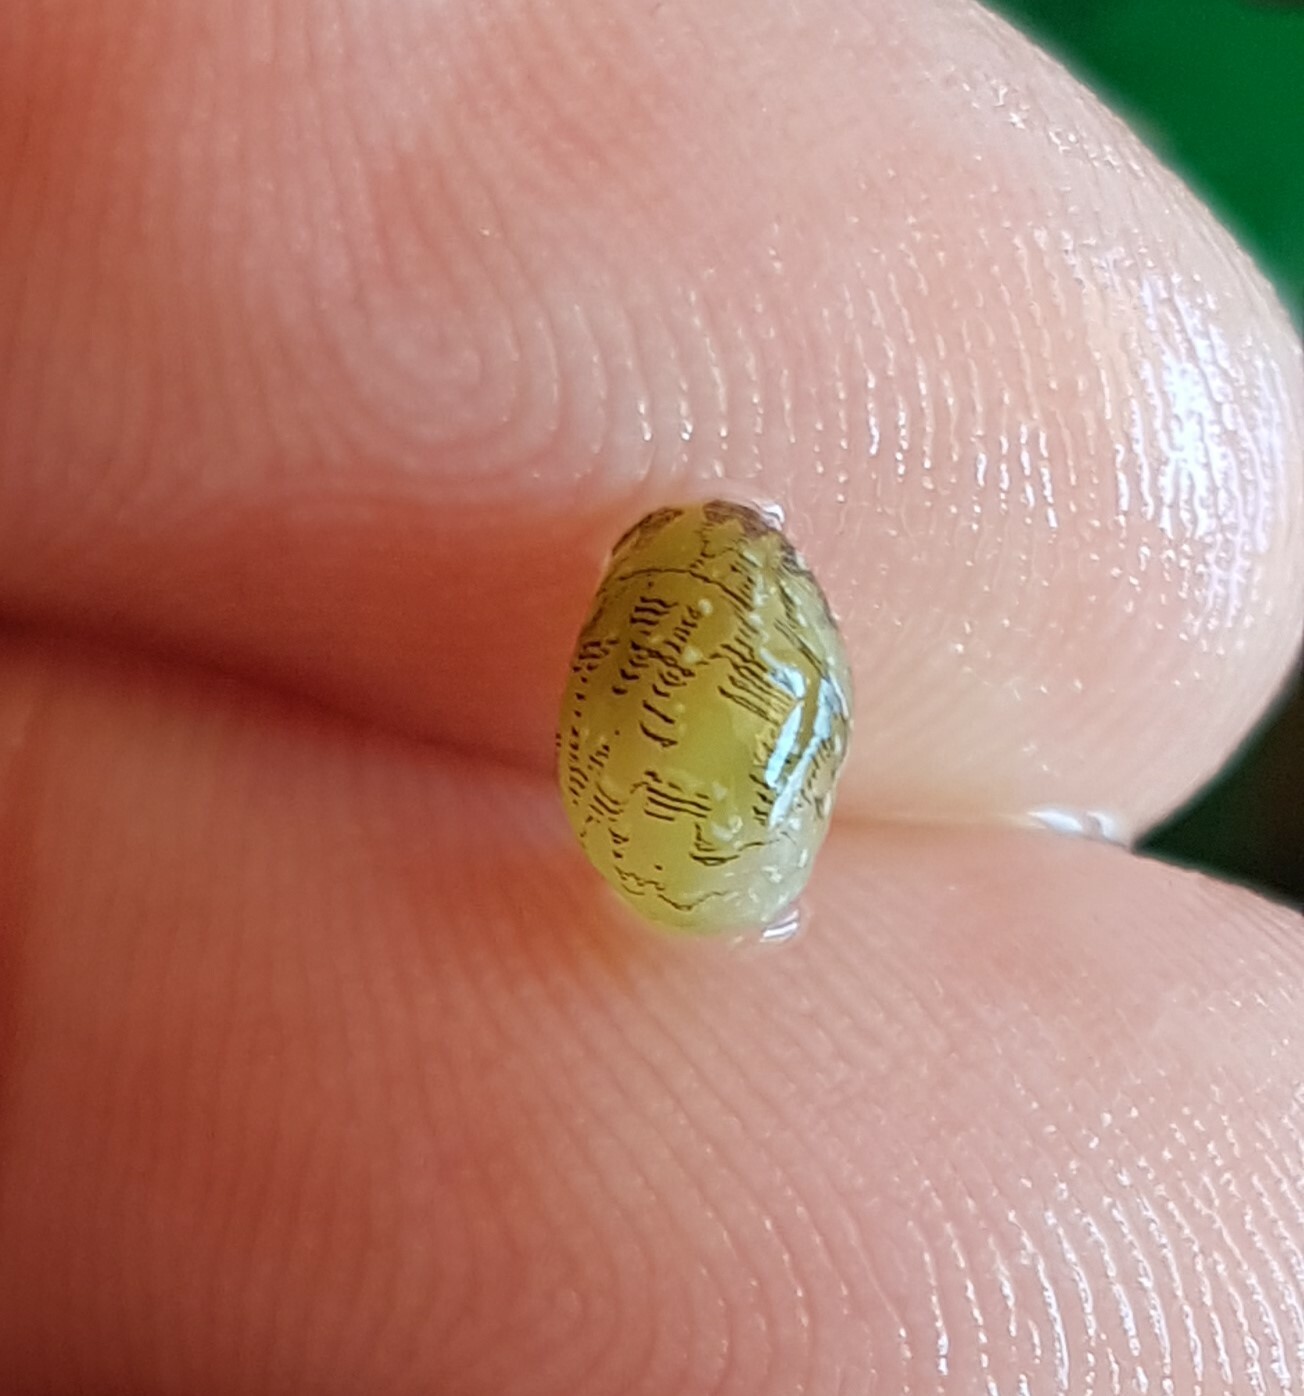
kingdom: Animalia
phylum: Mollusca
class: Gastropoda
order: Cycloneritida
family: Neritidae
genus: Smaragdia
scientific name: Smaragdia viridis
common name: Emerald nerite
